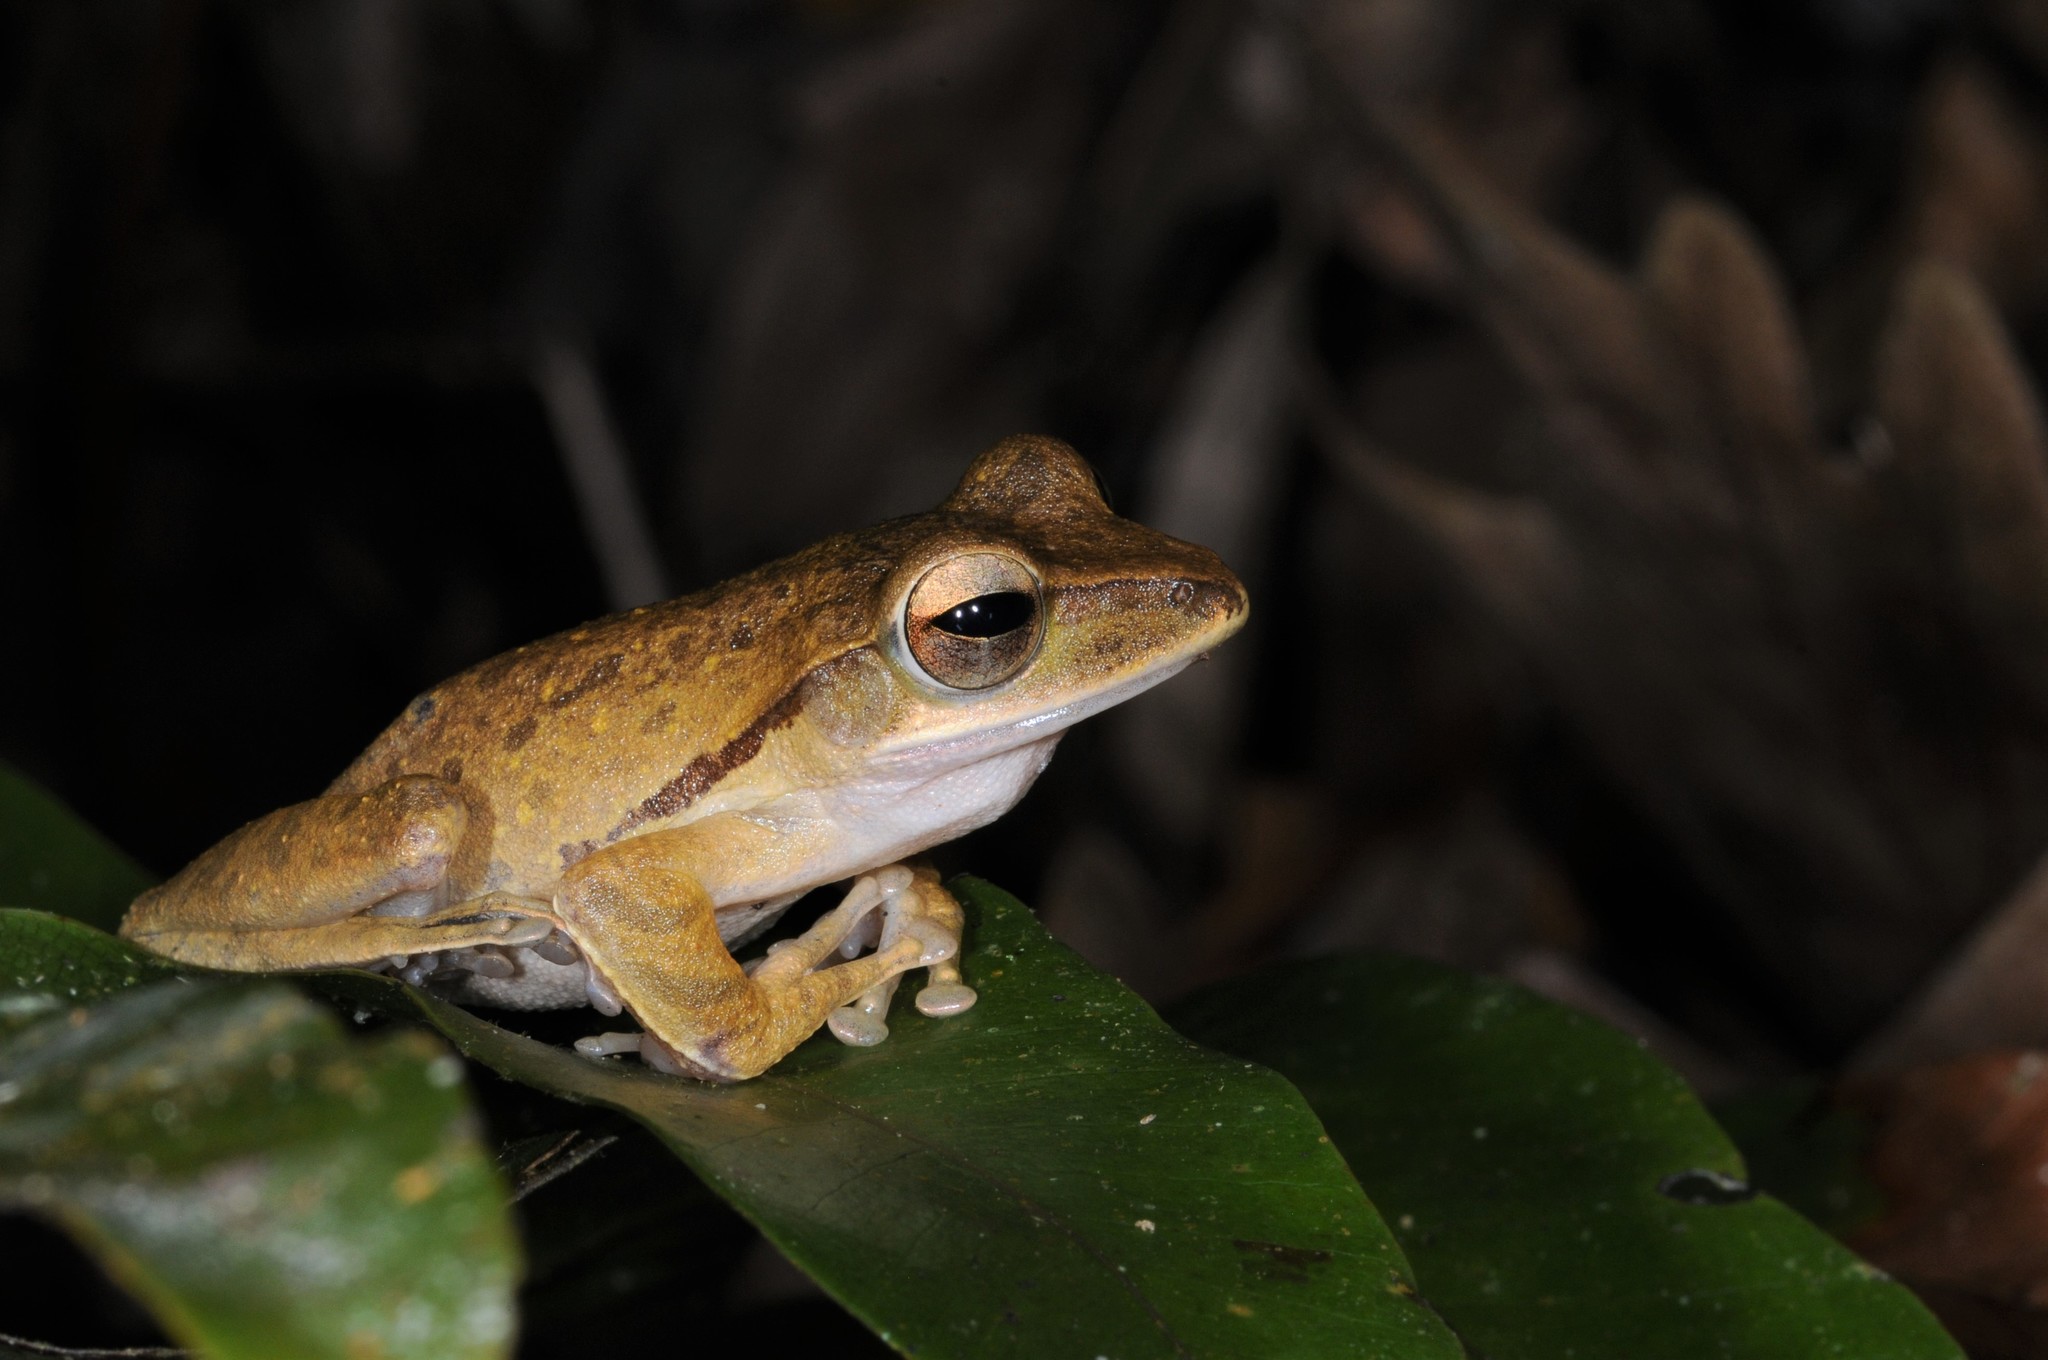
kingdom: Animalia
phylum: Chordata
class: Amphibia
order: Anura
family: Rhacophoridae
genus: Polypedates
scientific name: Polypedates leucomystax
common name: Common tree frog/four-lined tree frog
